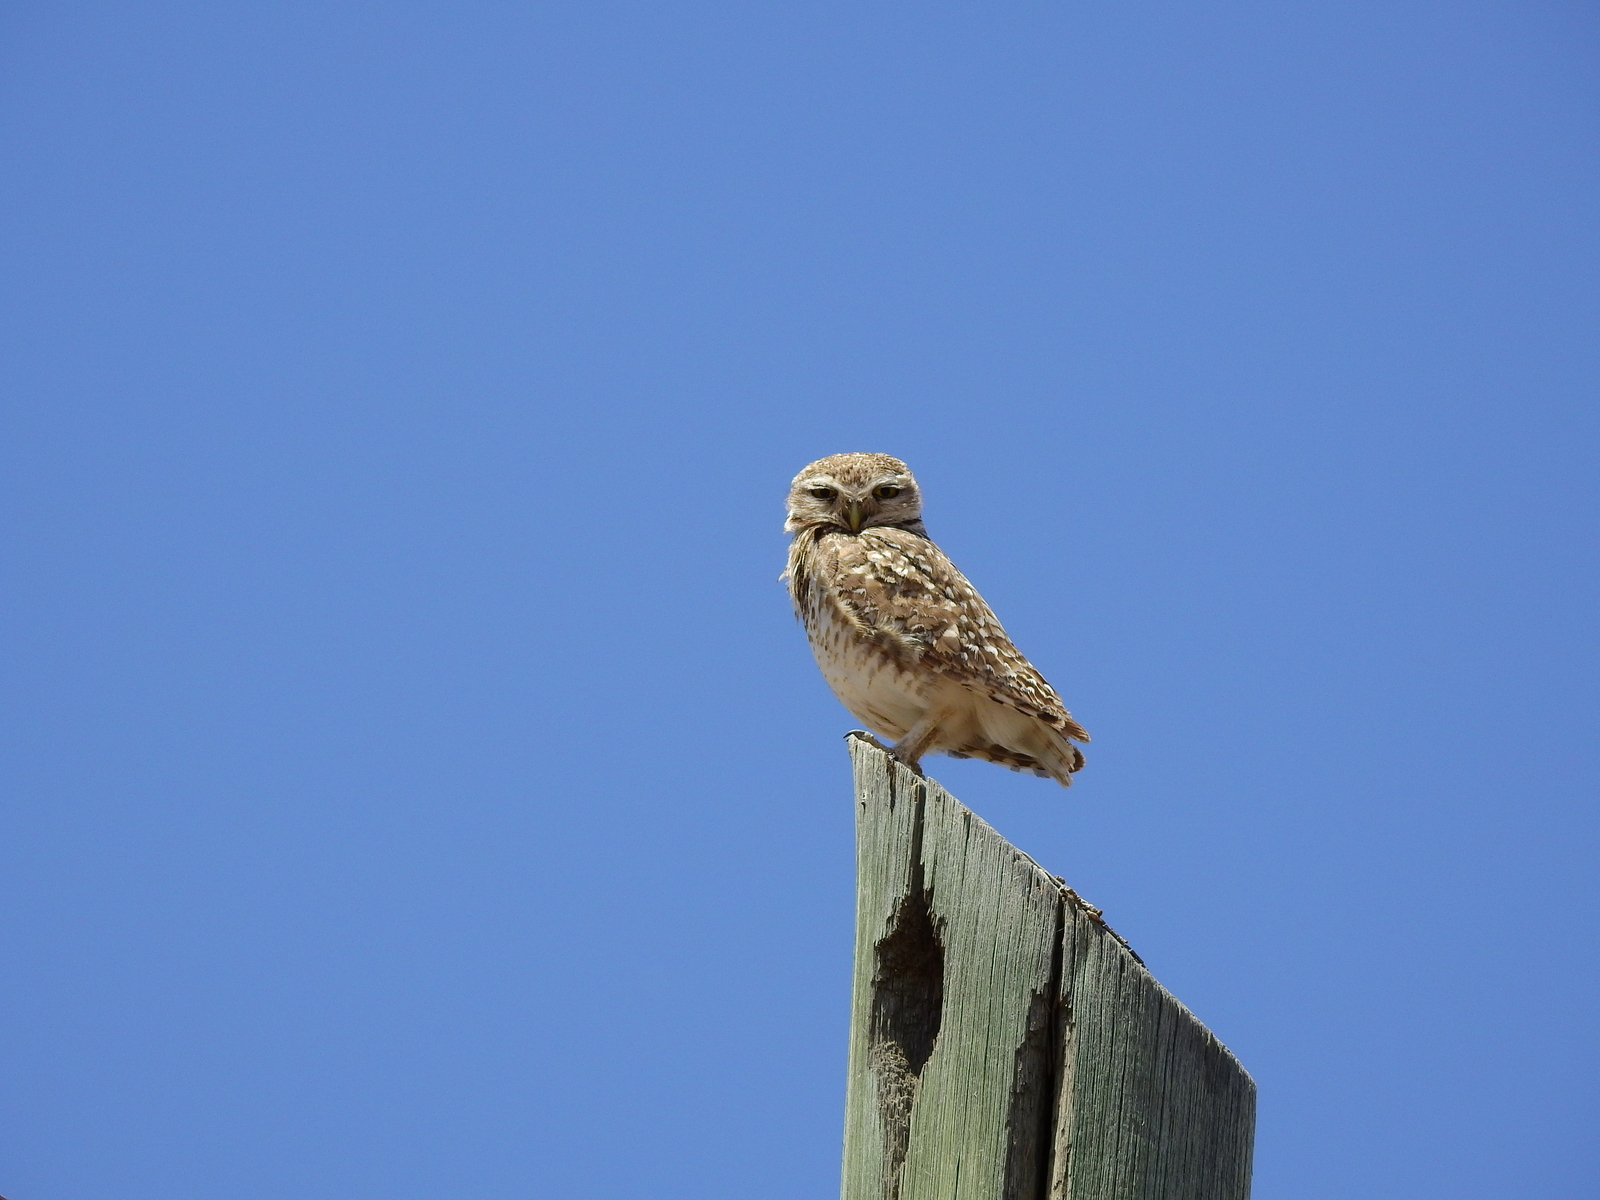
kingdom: Animalia
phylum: Chordata
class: Aves
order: Strigiformes
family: Strigidae
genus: Athene
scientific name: Athene cunicularia
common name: Burrowing owl
